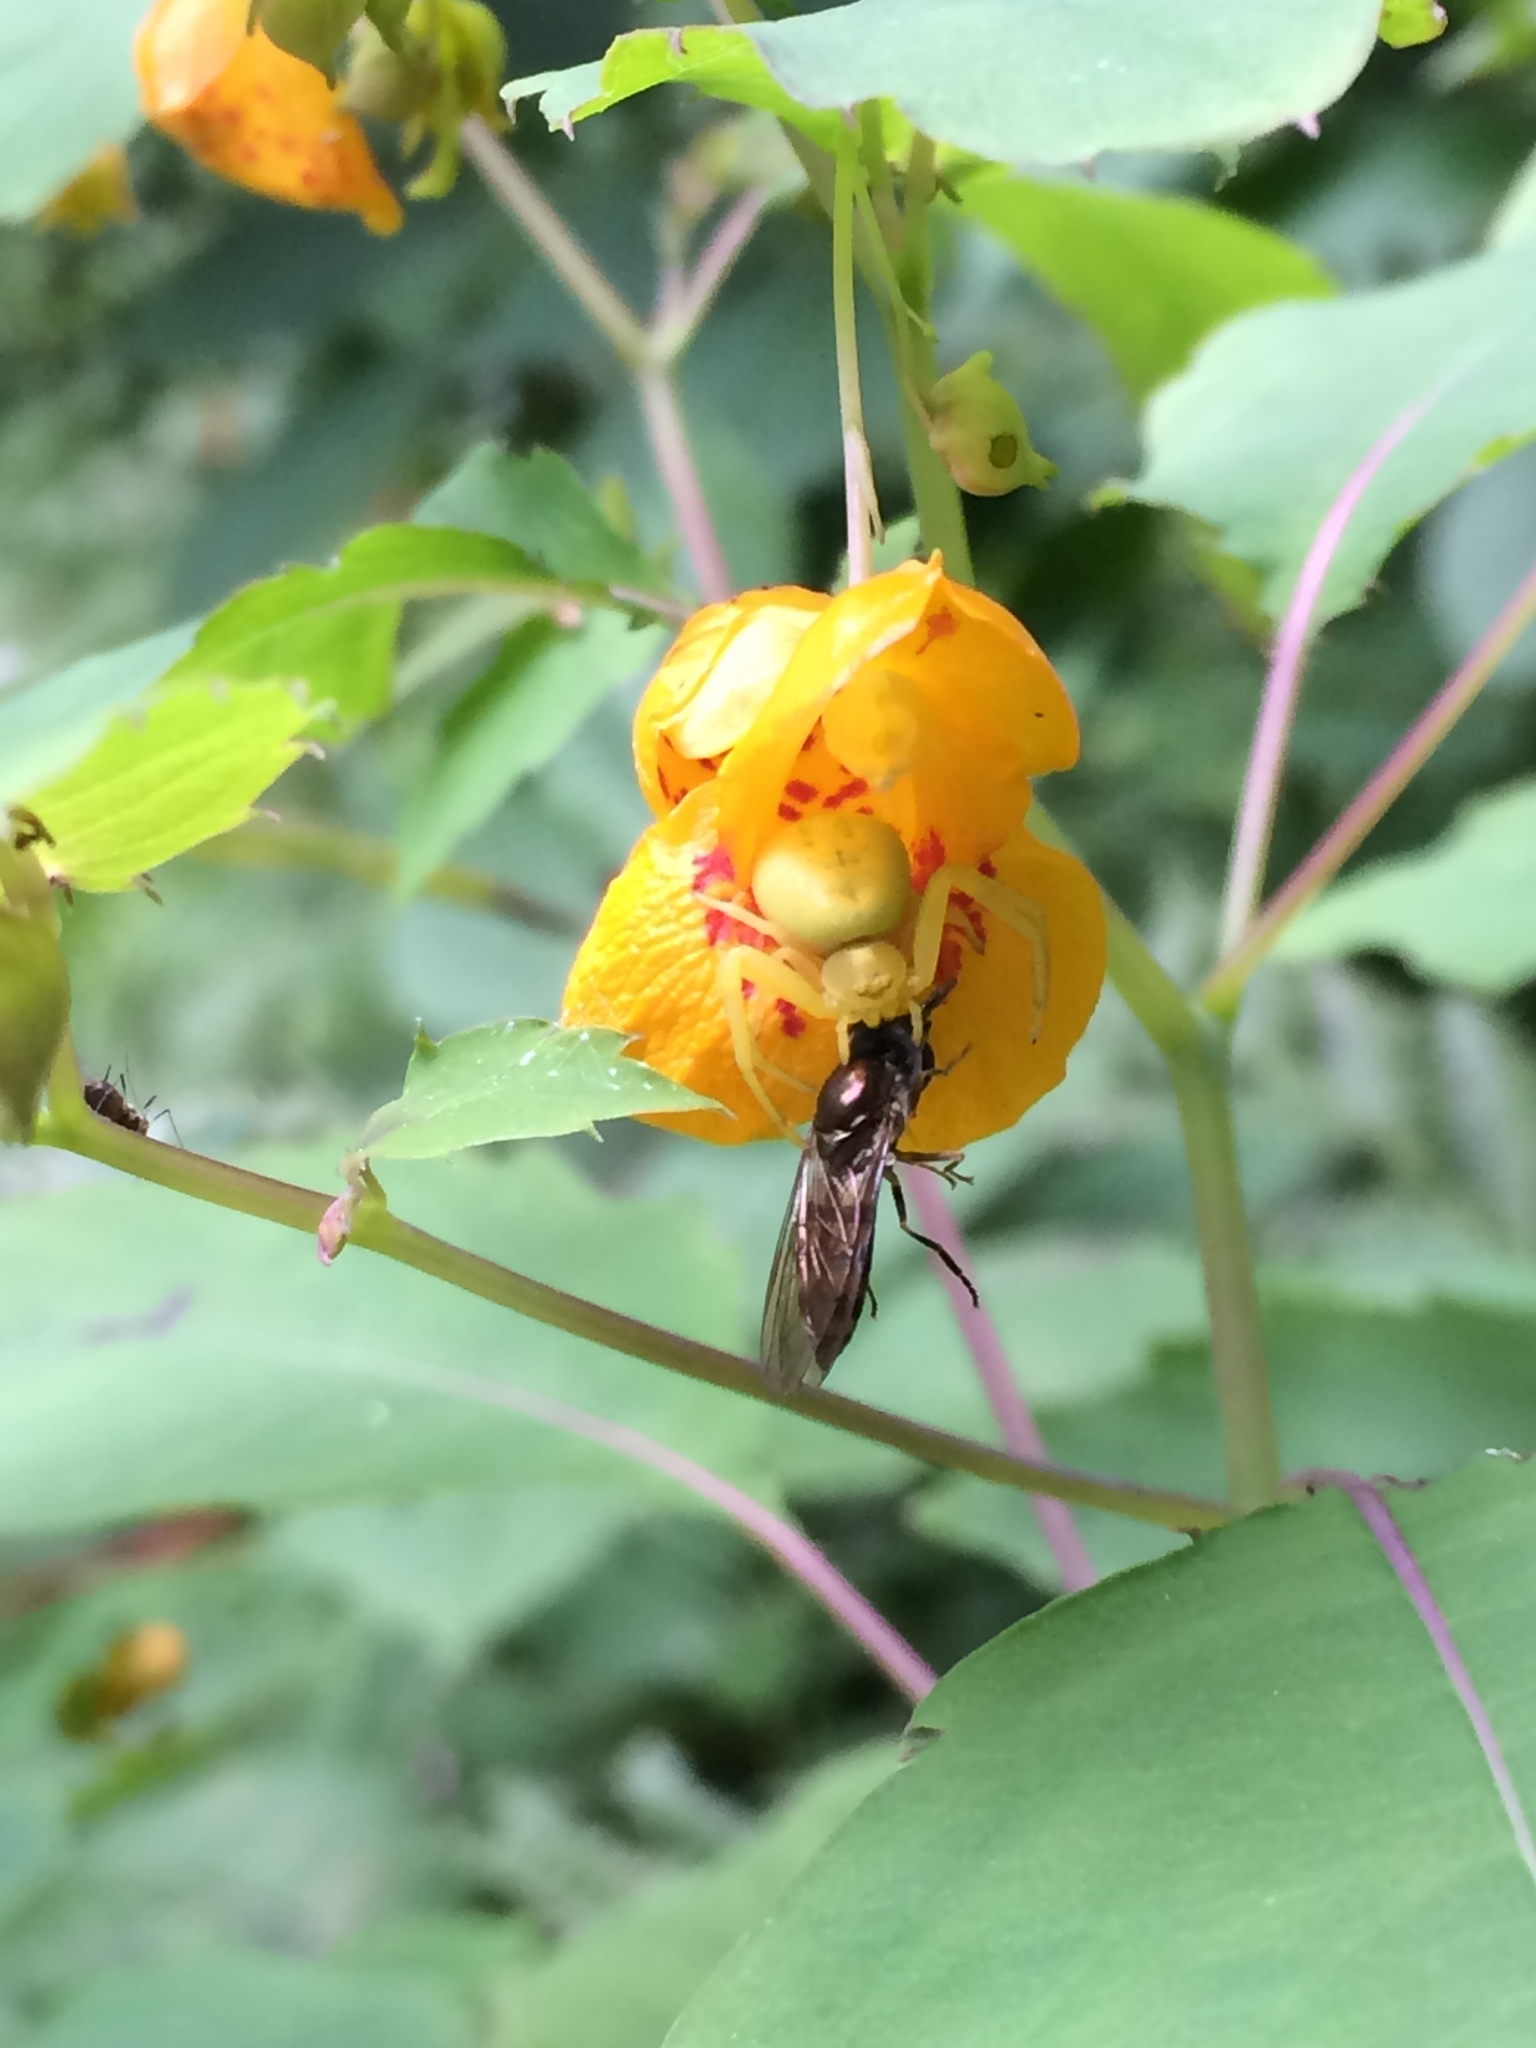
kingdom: Plantae
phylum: Tracheophyta
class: Magnoliopsida
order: Ericales
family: Balsaminaceae
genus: Impatiens
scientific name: Impatiens capensis
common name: Orange balsam
